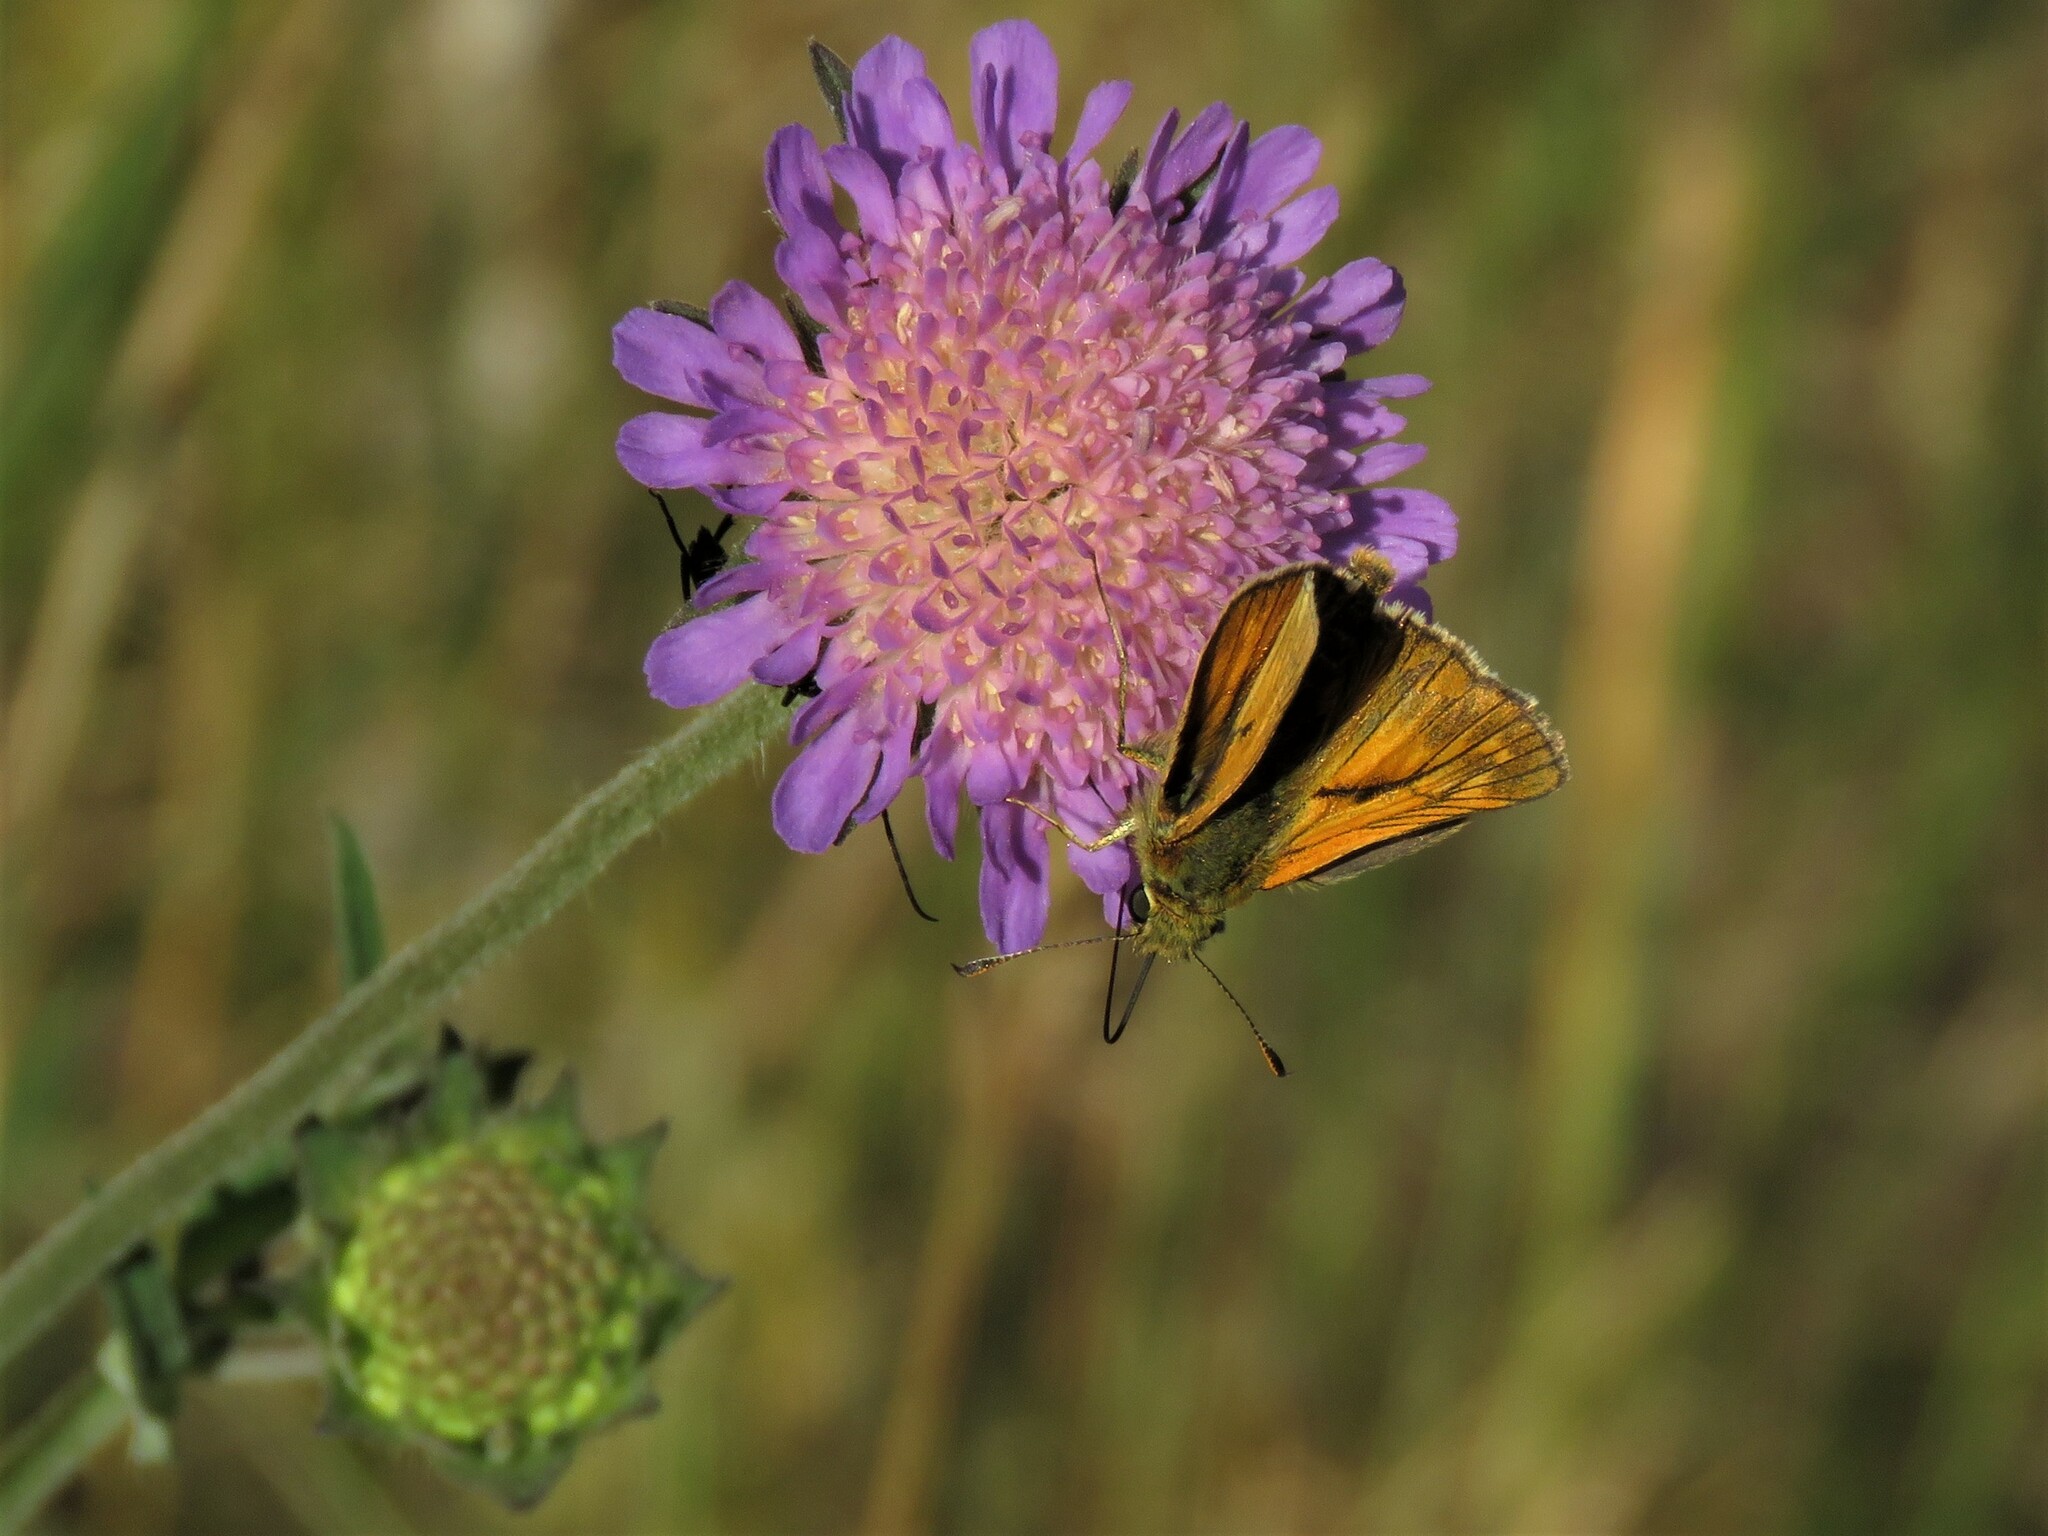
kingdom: Animalia
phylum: Arthropoda
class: Insecta
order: Lepidoptera
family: Hesperiidae
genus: Ochlodes
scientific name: Ochlodes venata
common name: Large skipper
